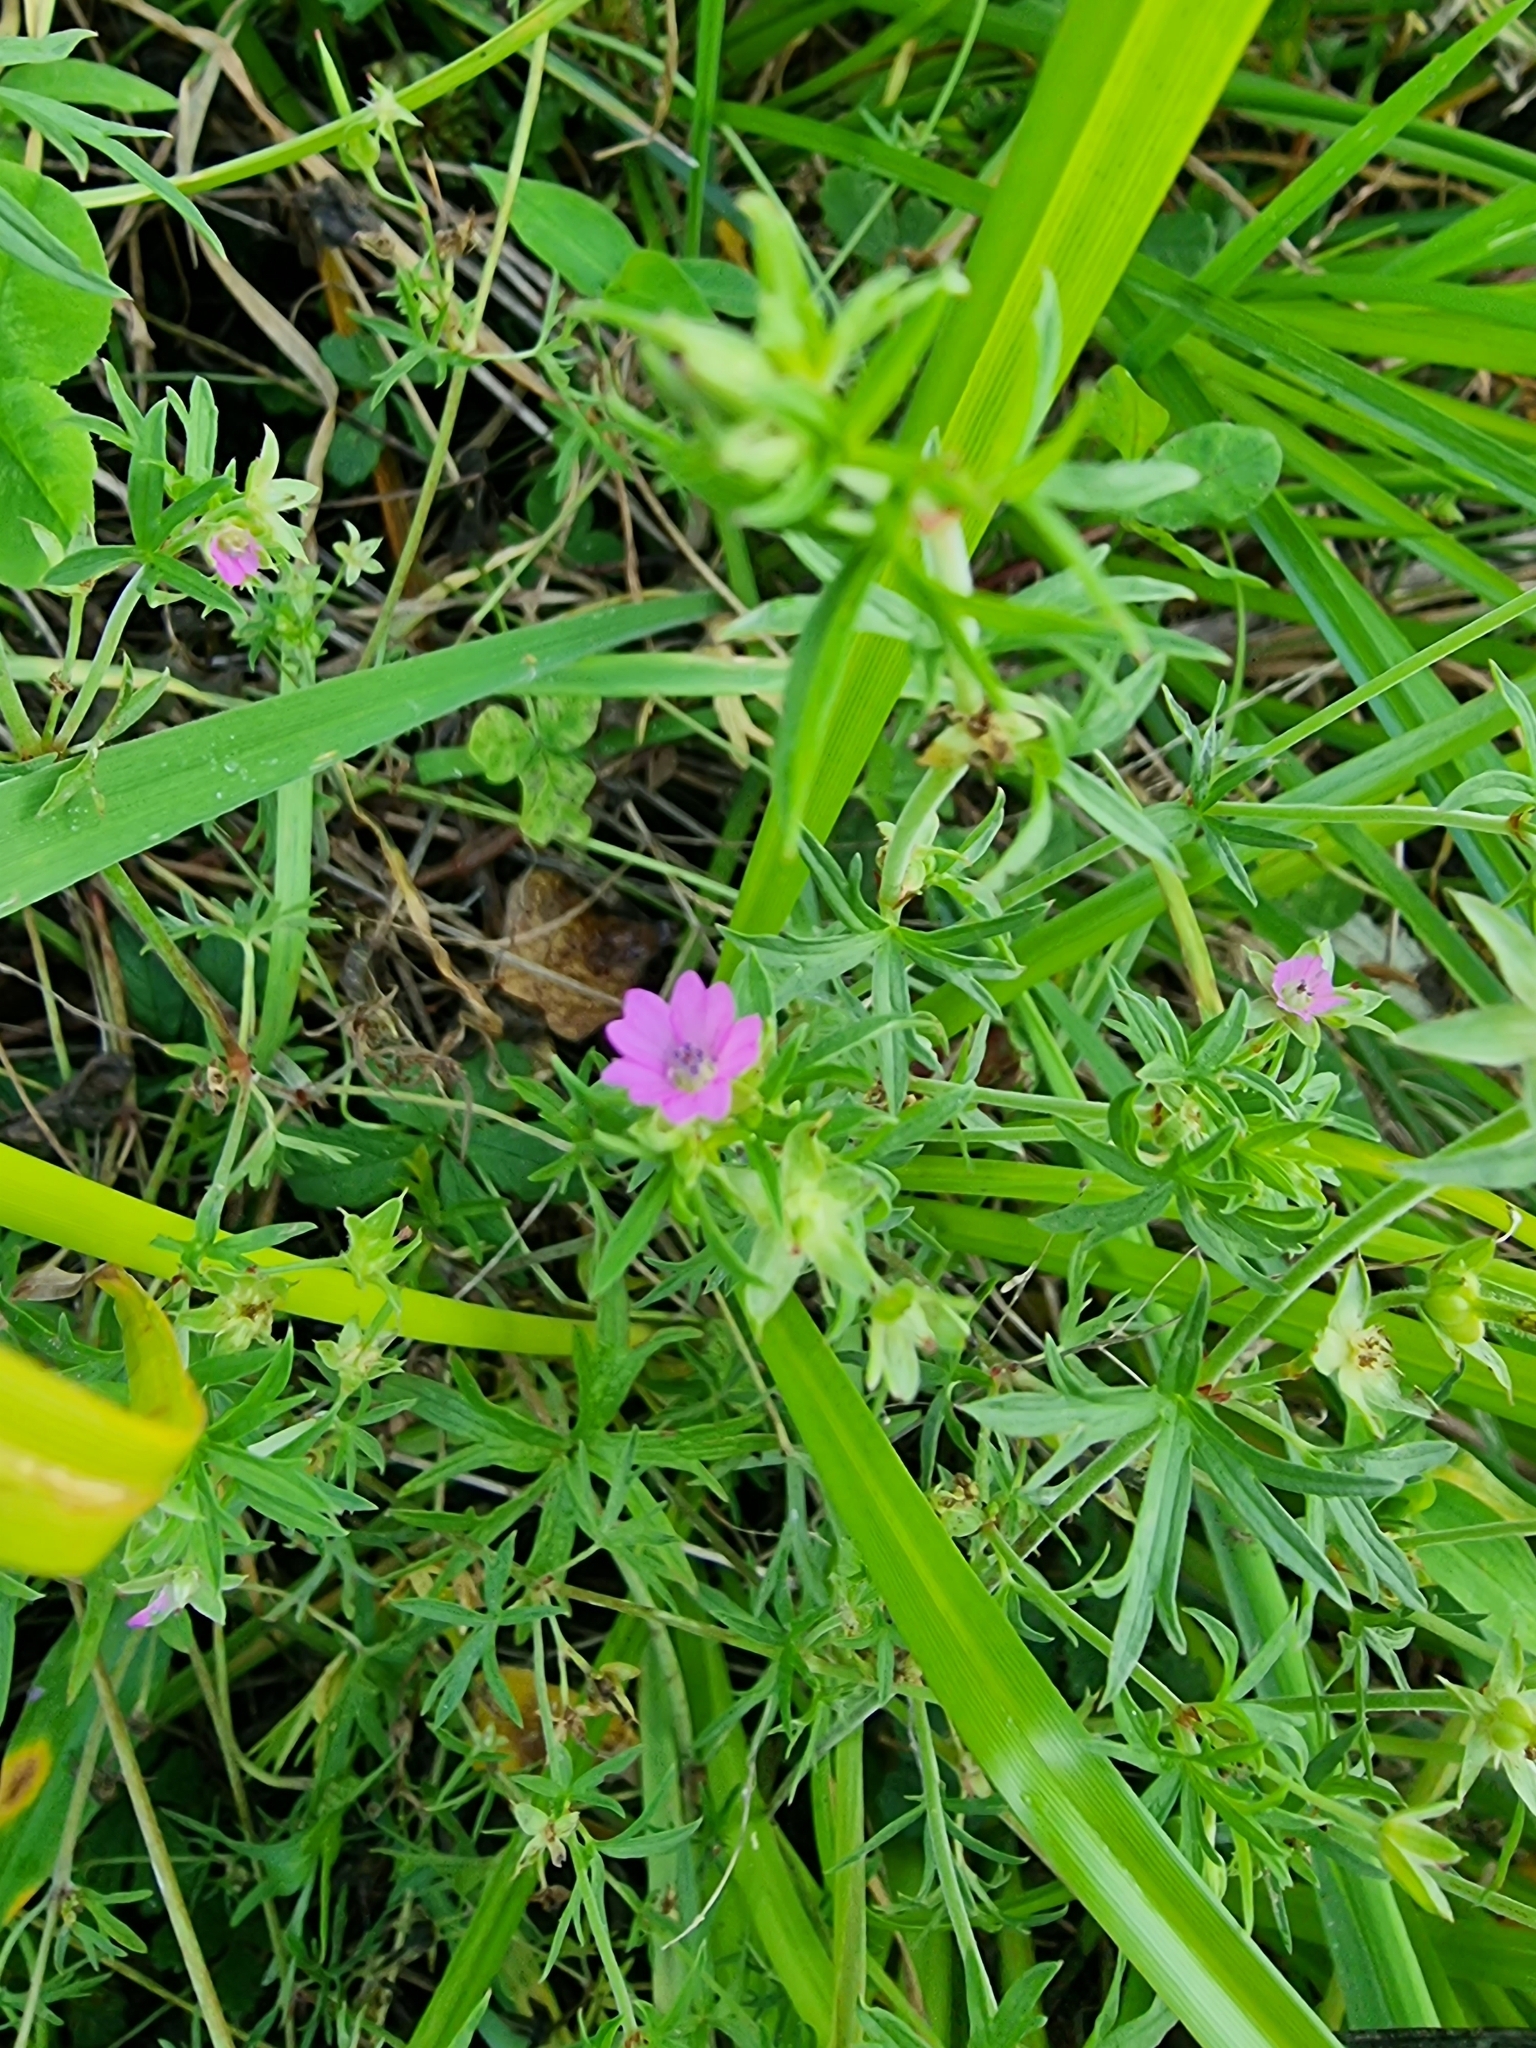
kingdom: Plantae
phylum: Tracheophyta
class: Magnoliopsida
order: Geraniales
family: Geraniaceae
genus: Geranium
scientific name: Geranium dissectum
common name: Cut-leaved crane's-bill
